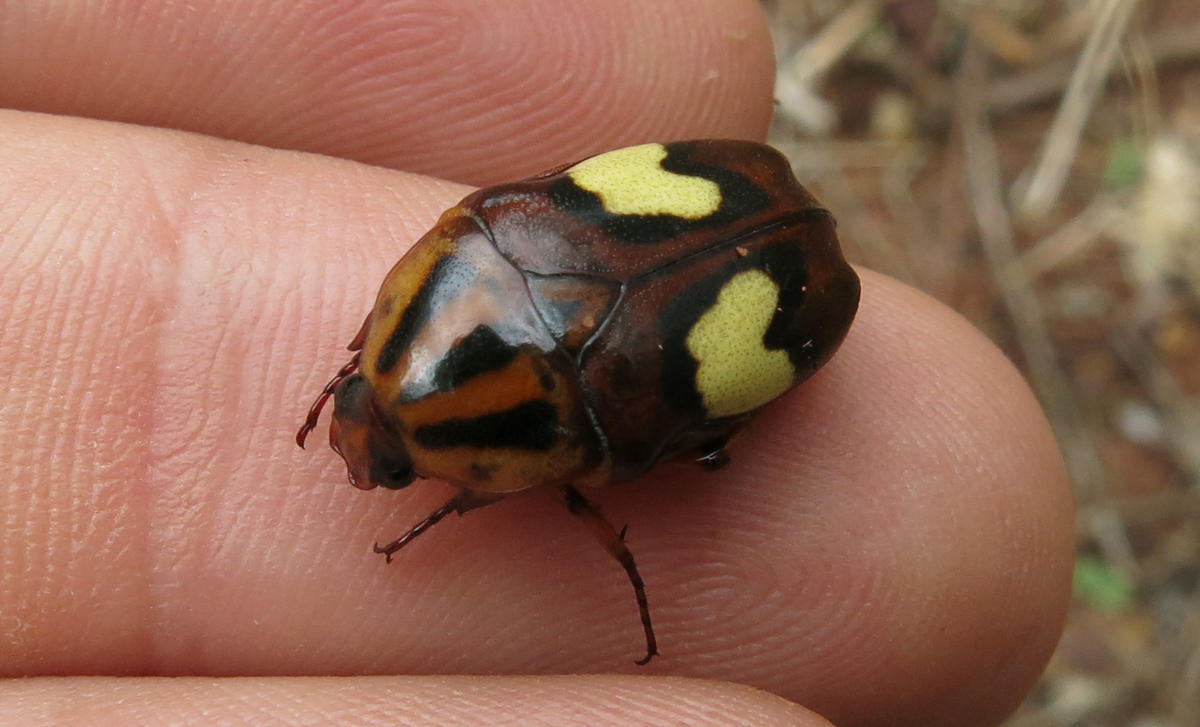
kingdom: Animalia
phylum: Arthropoda
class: Insecta
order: Coleoptera
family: Scarabaeidae
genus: Pedinorrhina
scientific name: Pedinorrhina
